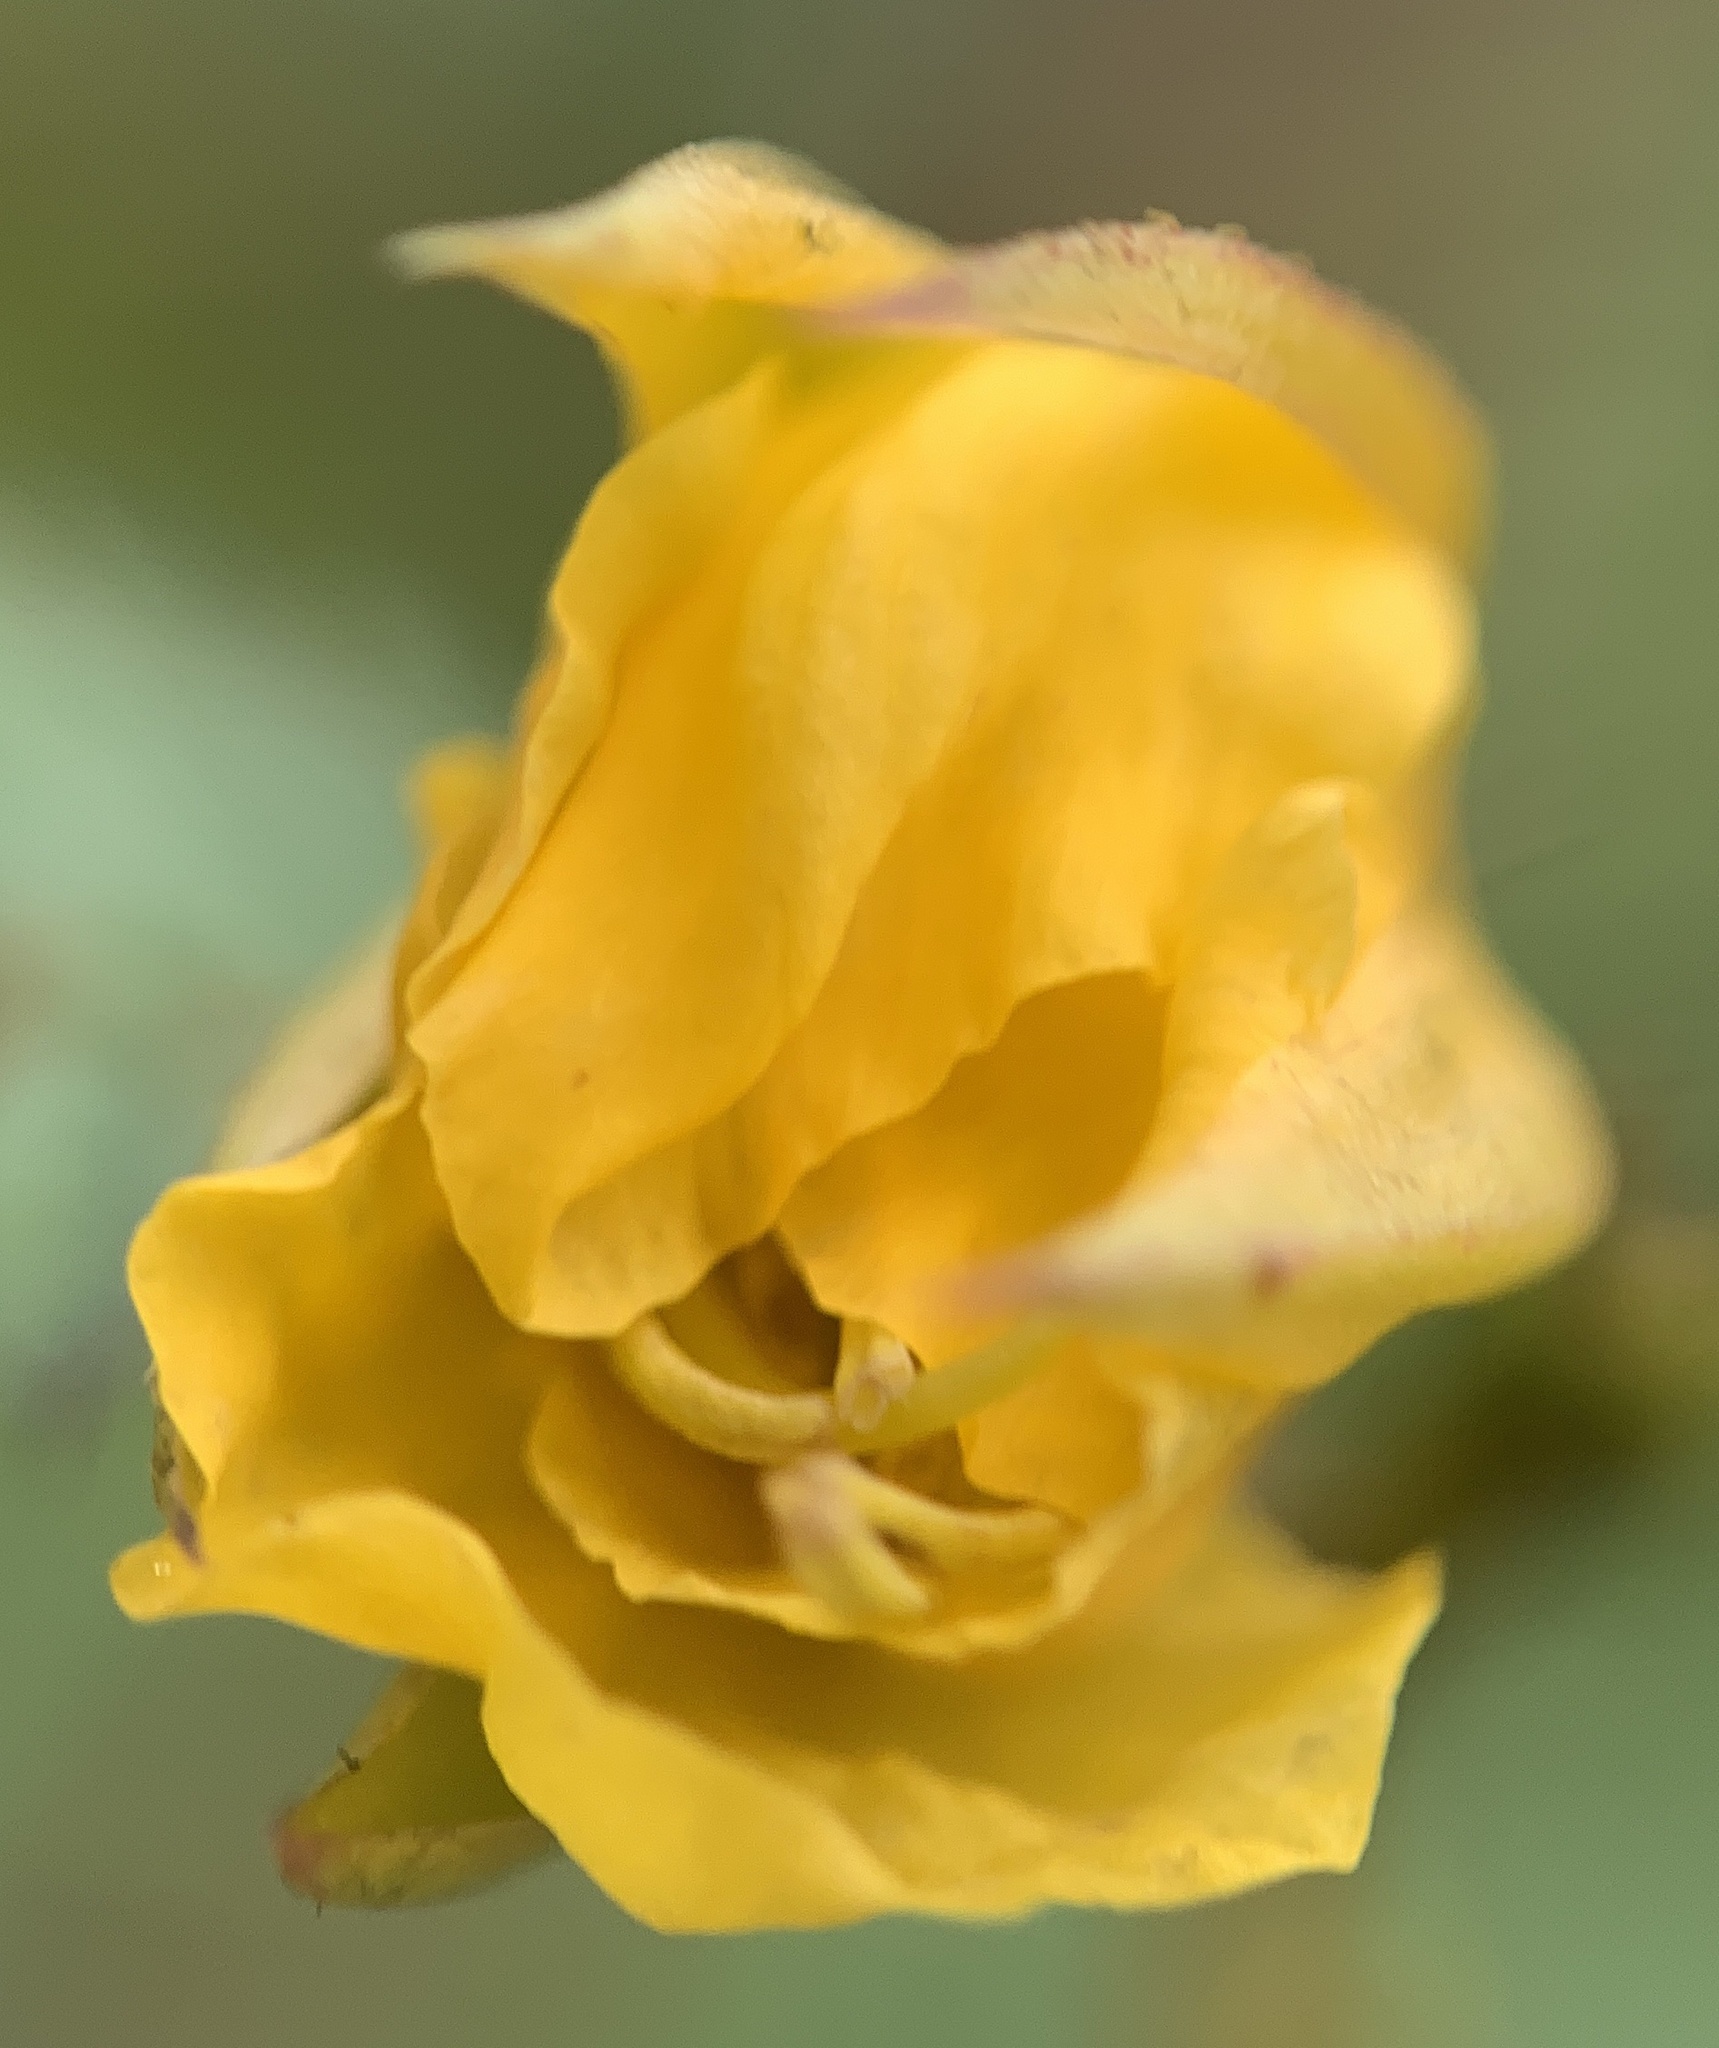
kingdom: Plantae
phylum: Tracheophyta
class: Magnoliopsida
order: Fabales
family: Fabaceae
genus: Chamaecrista
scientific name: Chamaecrista fasciculata
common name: Golden cassia
